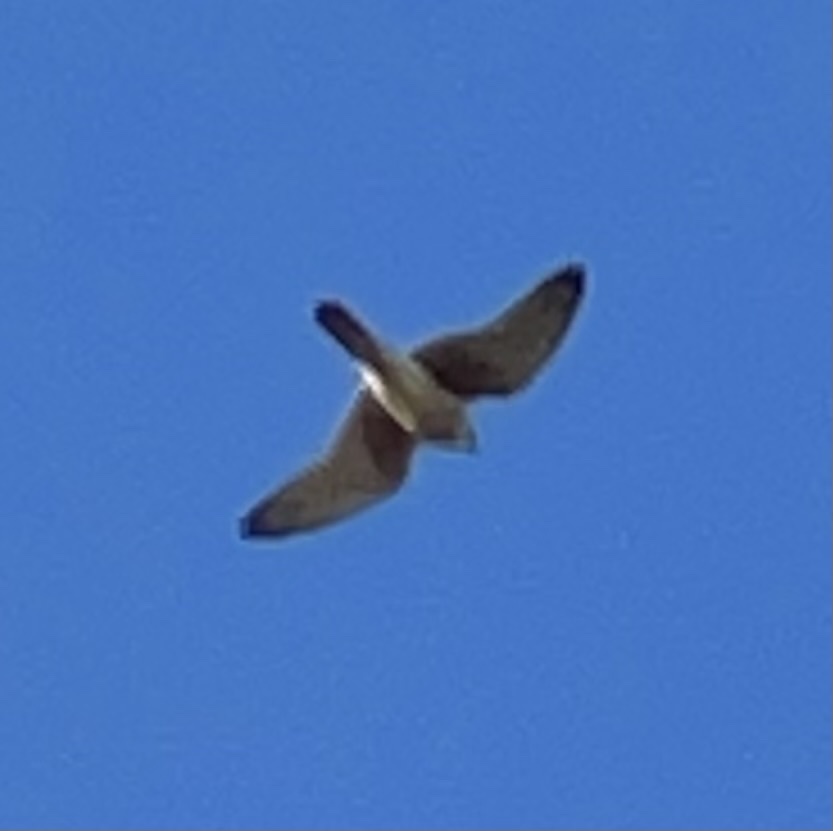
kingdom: Animalia
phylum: Chordata
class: Aves
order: Falconiformes
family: Falconidae
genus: Falco
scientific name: Falco sparverius
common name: American kestrel
